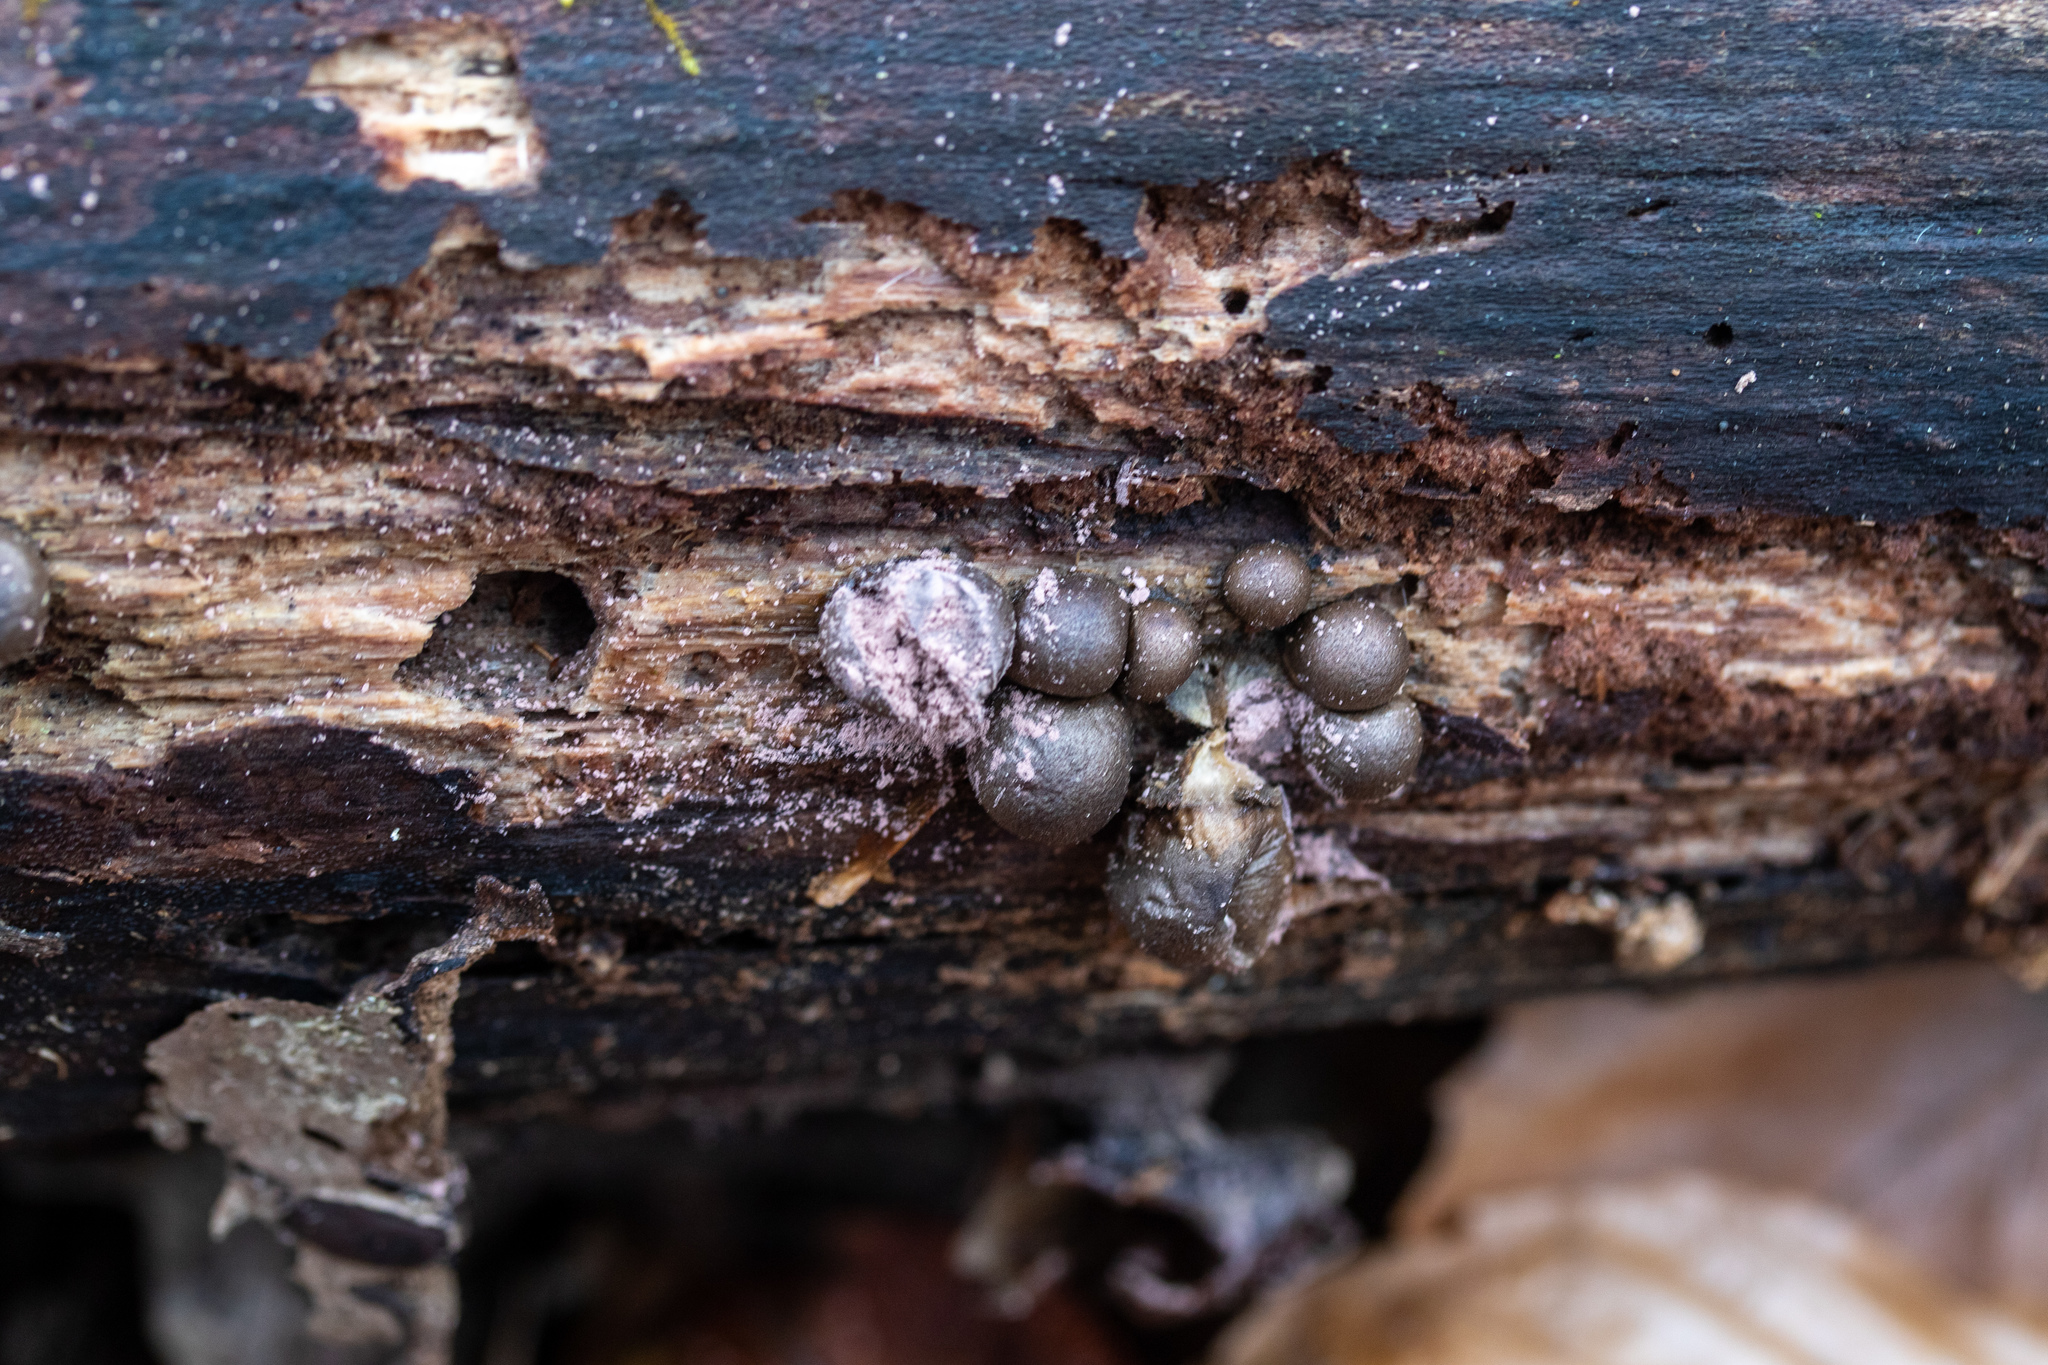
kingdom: Protozoa
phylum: Mycetozoa
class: Myxomycetes
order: Cribrariales
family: Tubiferaceae
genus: Lycogala
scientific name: Lycogala epidendrum
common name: Wolf's milk
